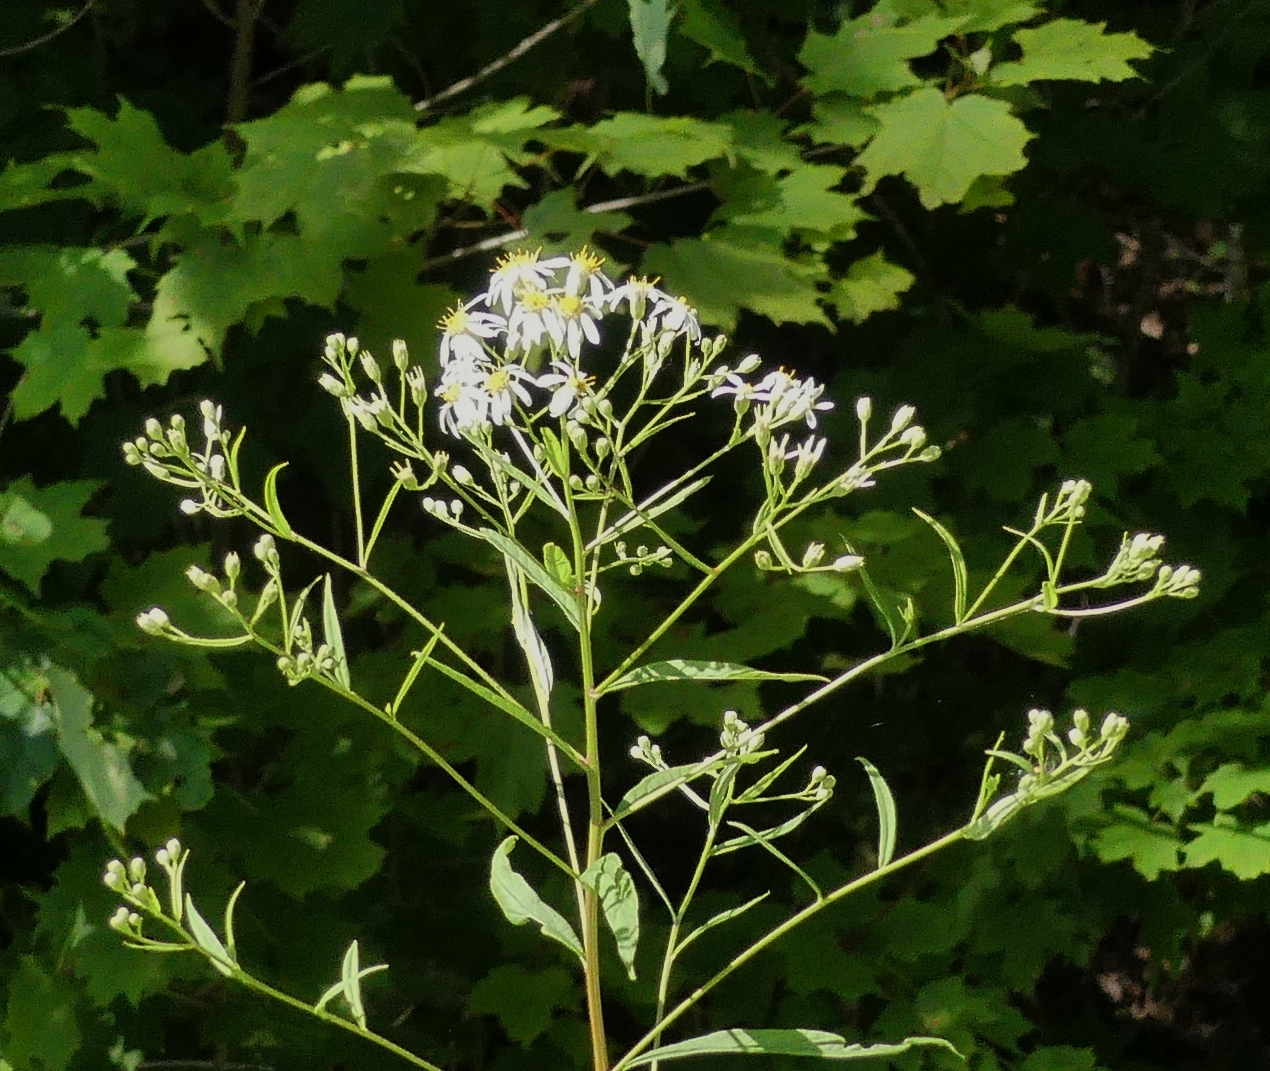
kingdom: Plantae
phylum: Tracheophyta
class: Magnoliopsida
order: Asterales
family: Asteraceae
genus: Doellingeria
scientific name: Doellingeria umbellata
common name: Flat-top white aster
